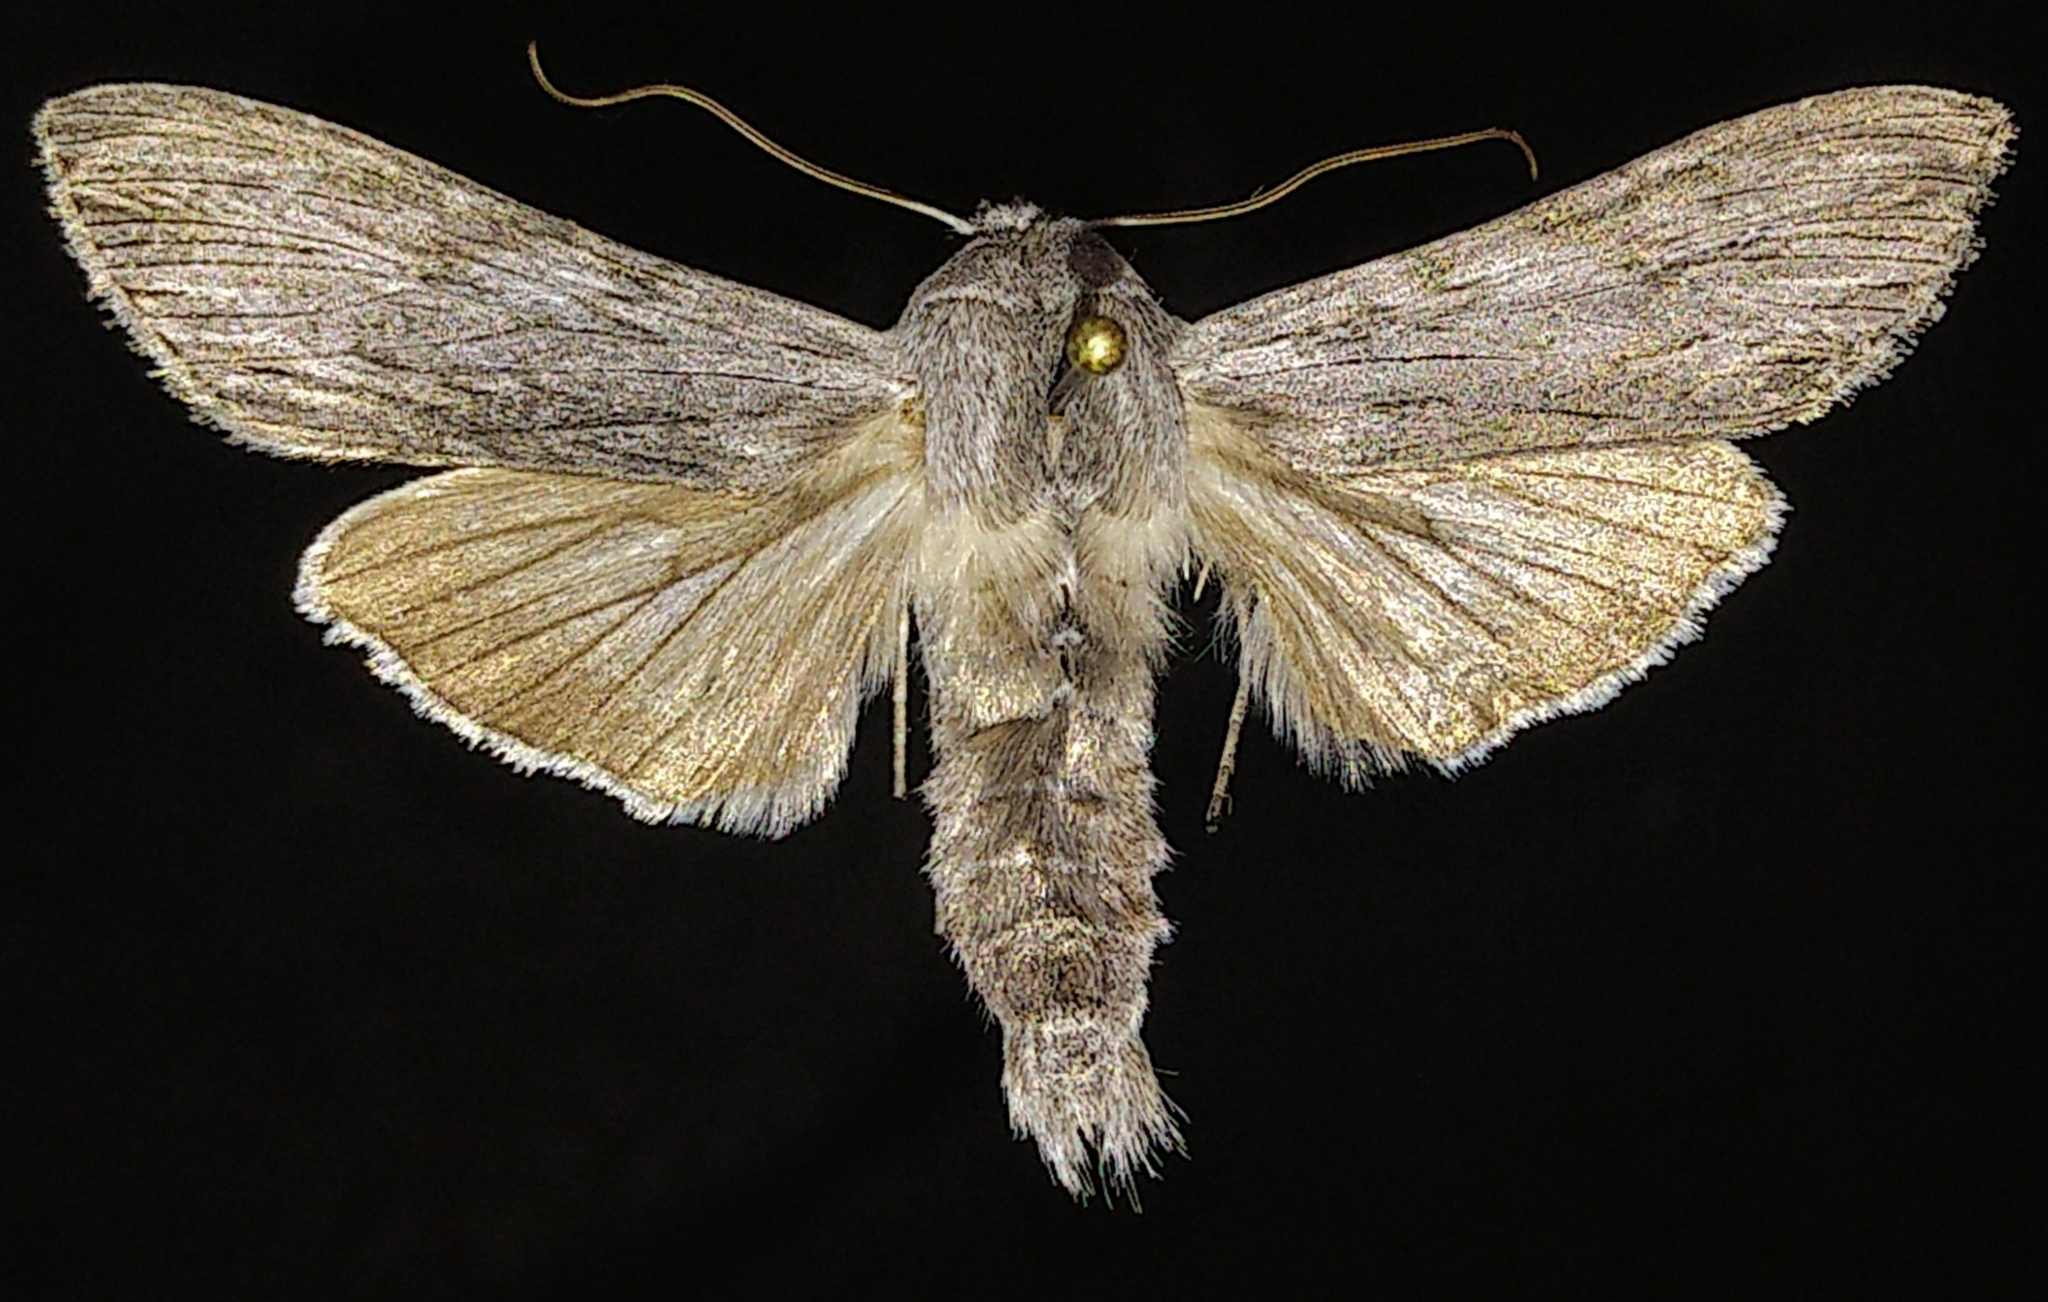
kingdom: Animalia
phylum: Arthropoda
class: Insecta
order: Lepidoptera
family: Noctuidae
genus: Cucullia
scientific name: Cucullia intermedia
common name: Goldenrod cutworm
